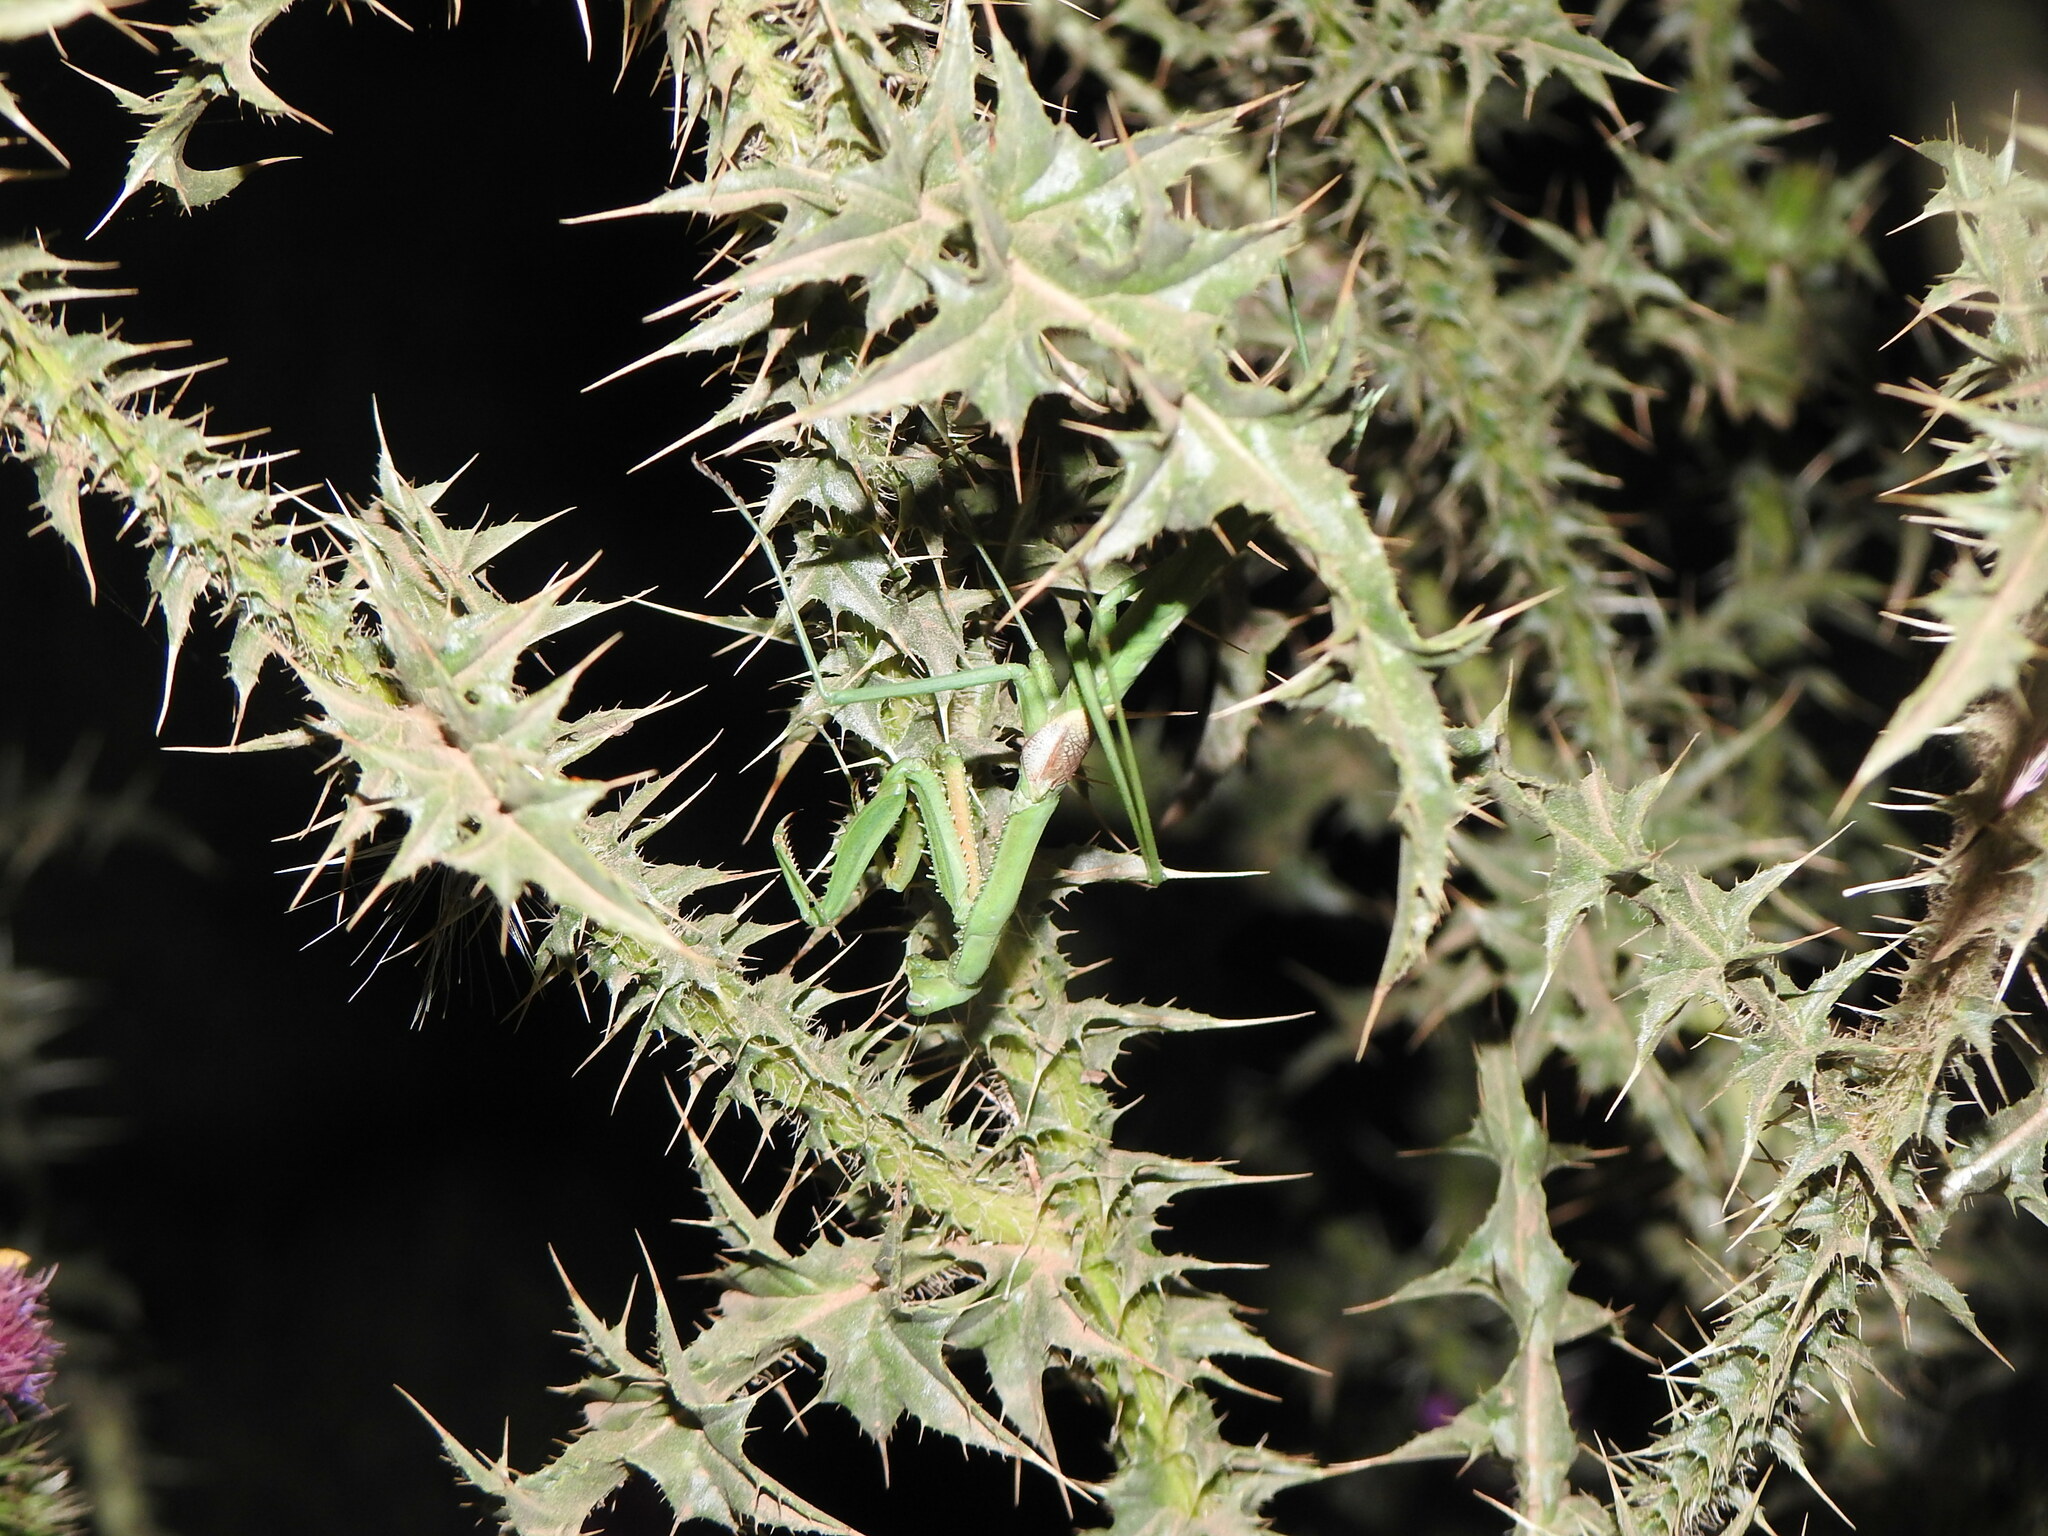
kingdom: Animalia
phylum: Arthropoda
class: Insecta
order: Mantodea
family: Coptopterygidae
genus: Coptopteryx
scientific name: Coptopteryx gayi
